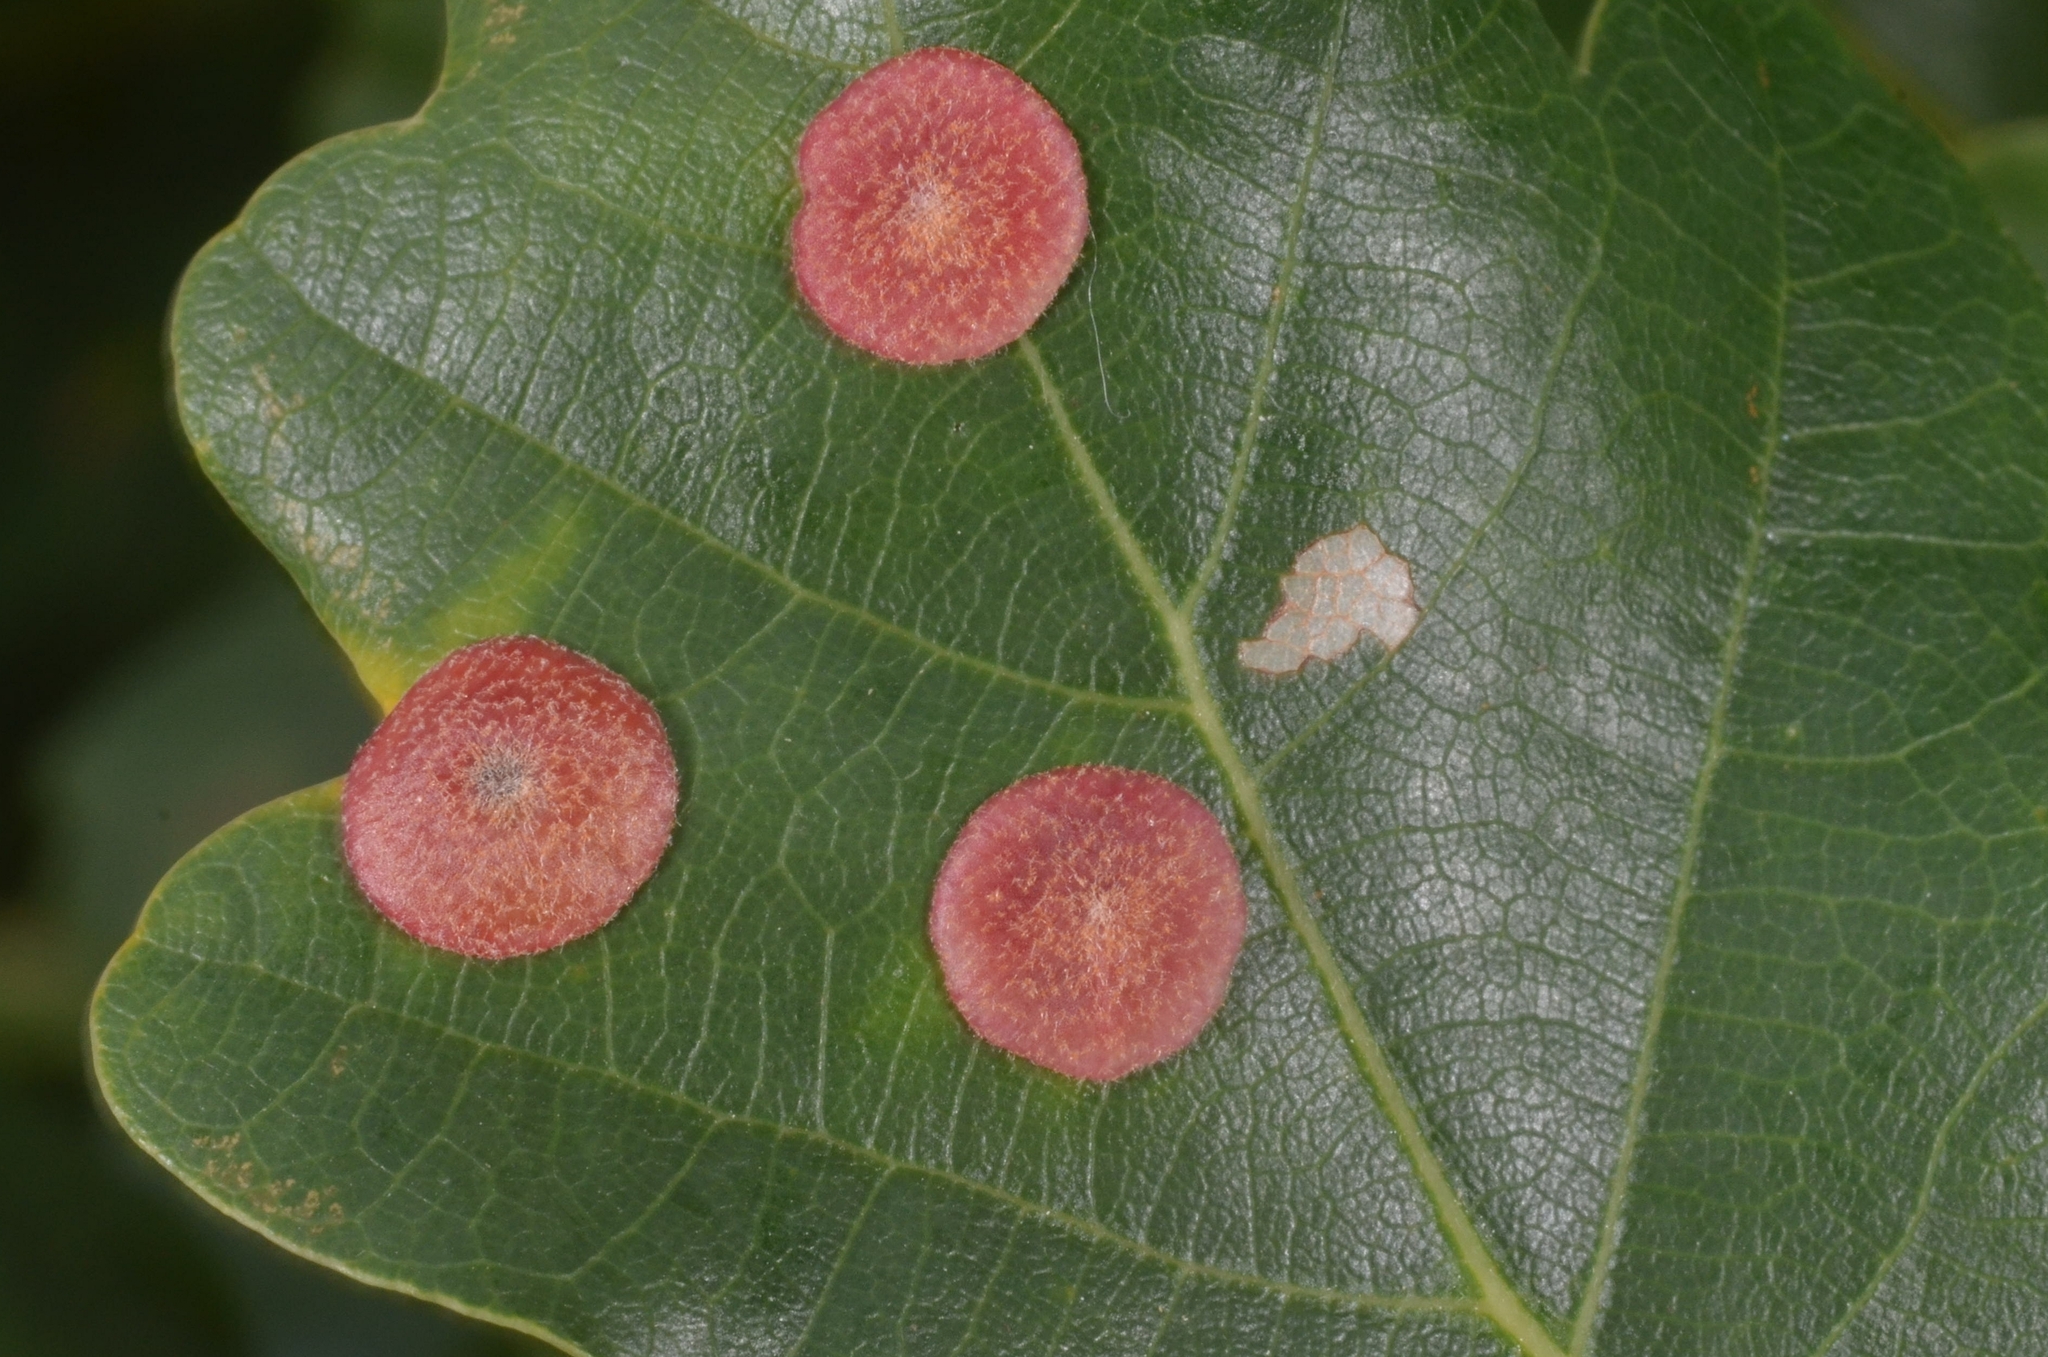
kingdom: Animalia
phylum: Arthropoda
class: Insecta
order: Hymenoptera
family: Cynipidae
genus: Neuroterus
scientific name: Neuroterus quercusbaccarum
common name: Common spangle gall
